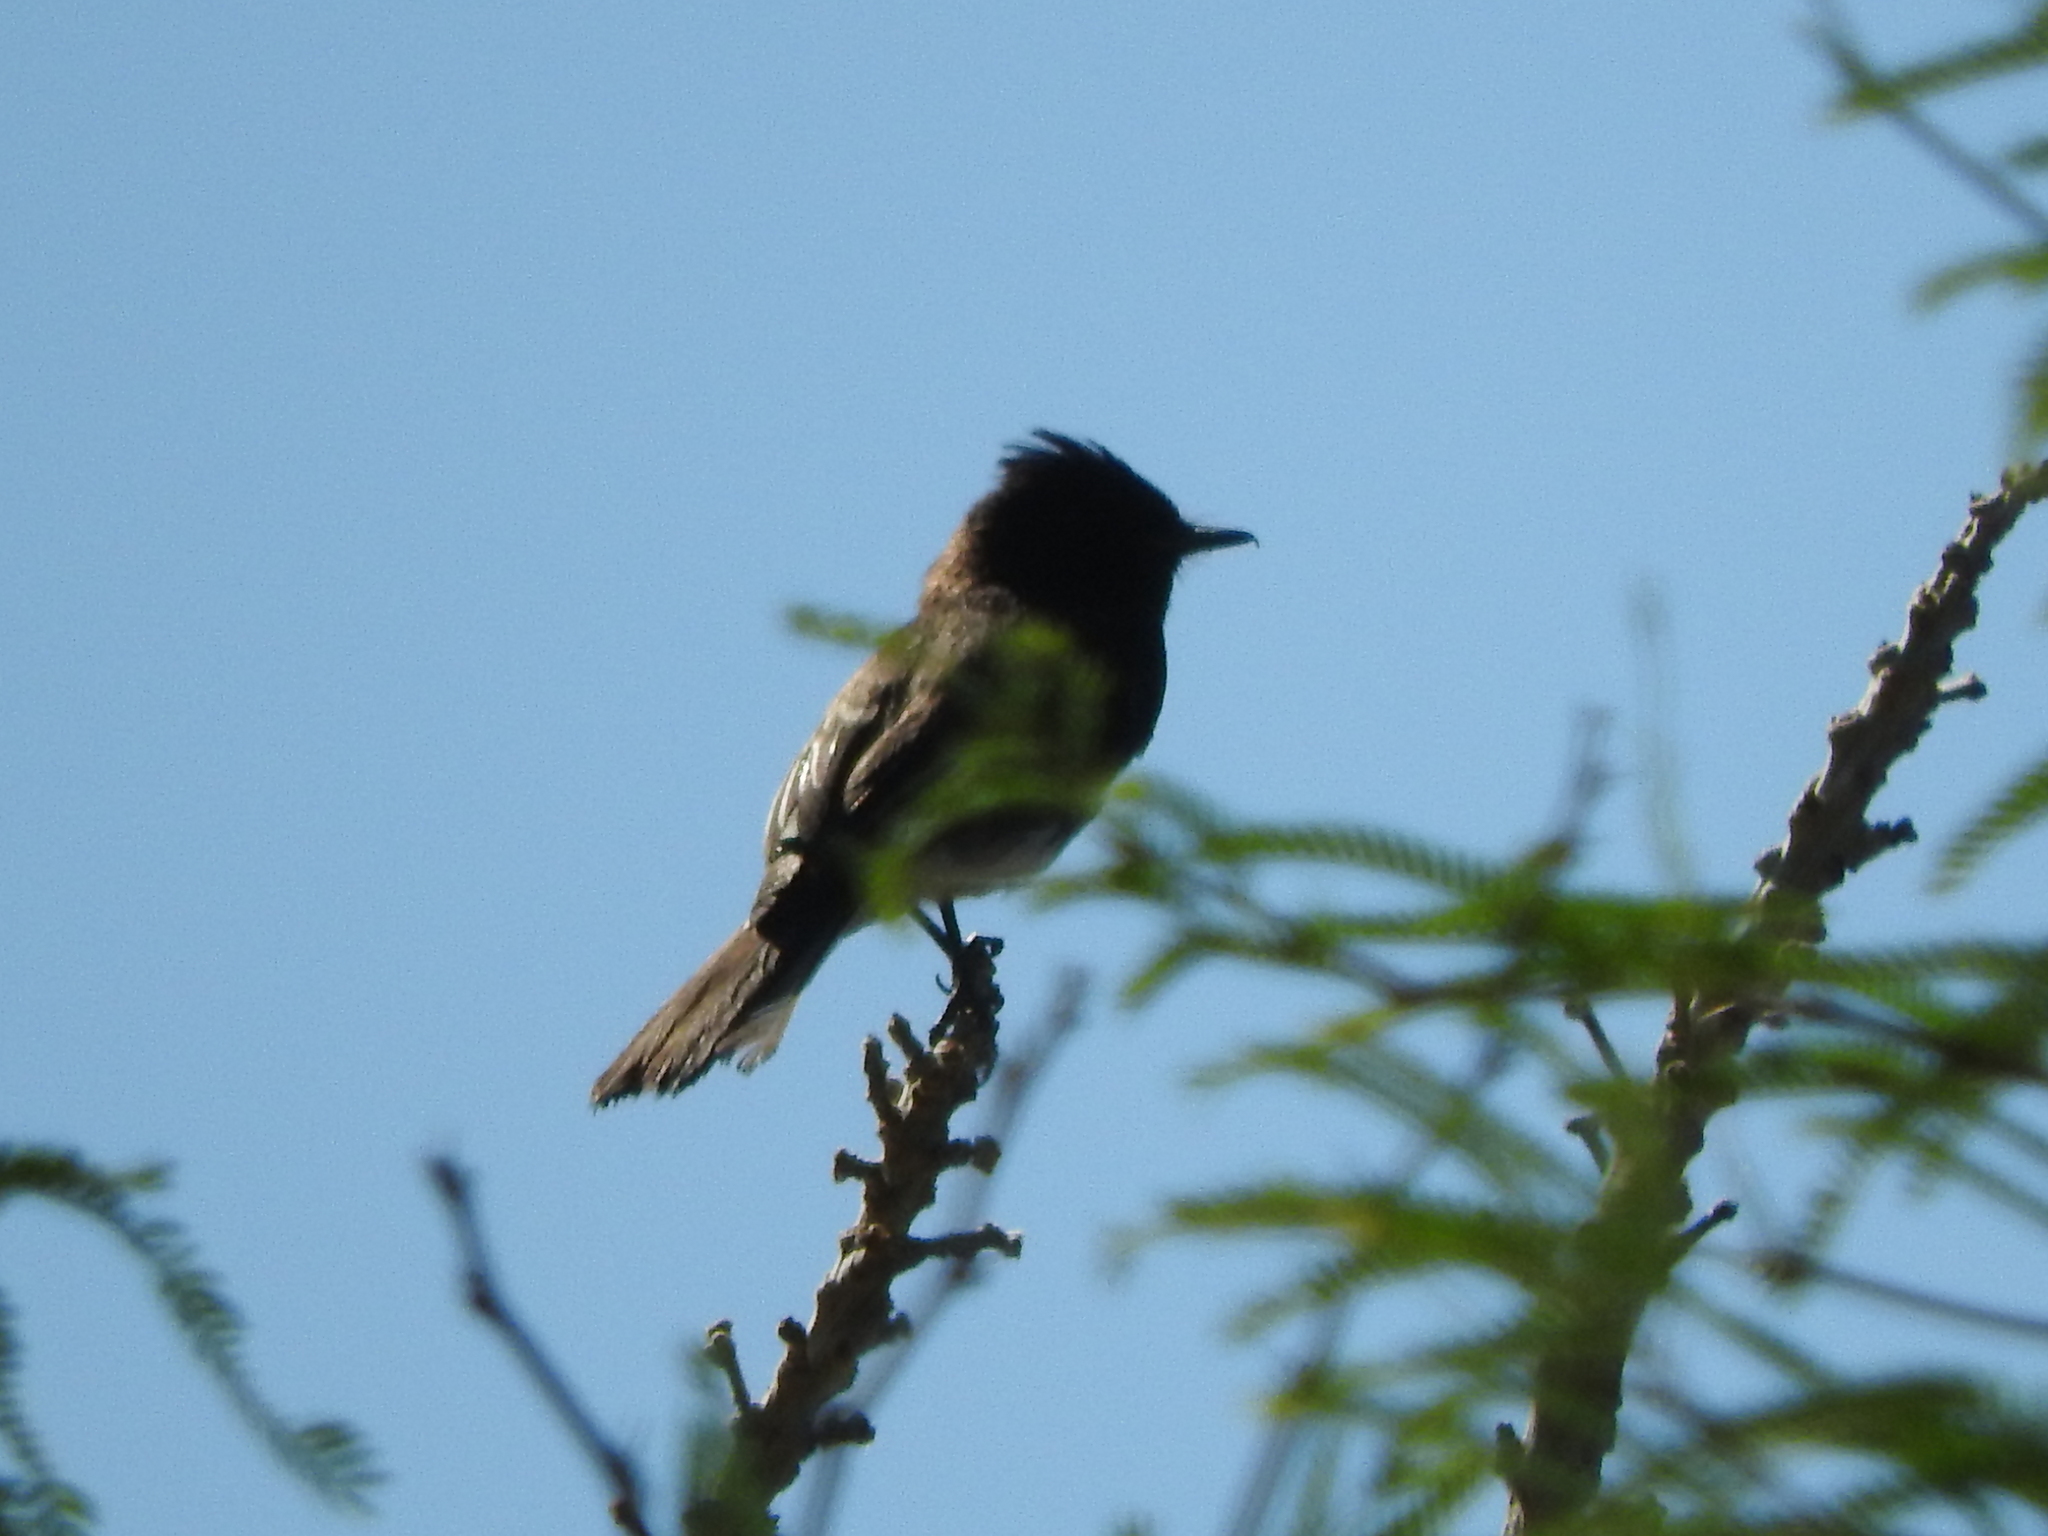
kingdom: Animalia
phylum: Chordata
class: Aves
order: Passeriformes
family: Tyrannidae
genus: Sayornis
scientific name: Sayornis nigricans
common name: Black phoebe
